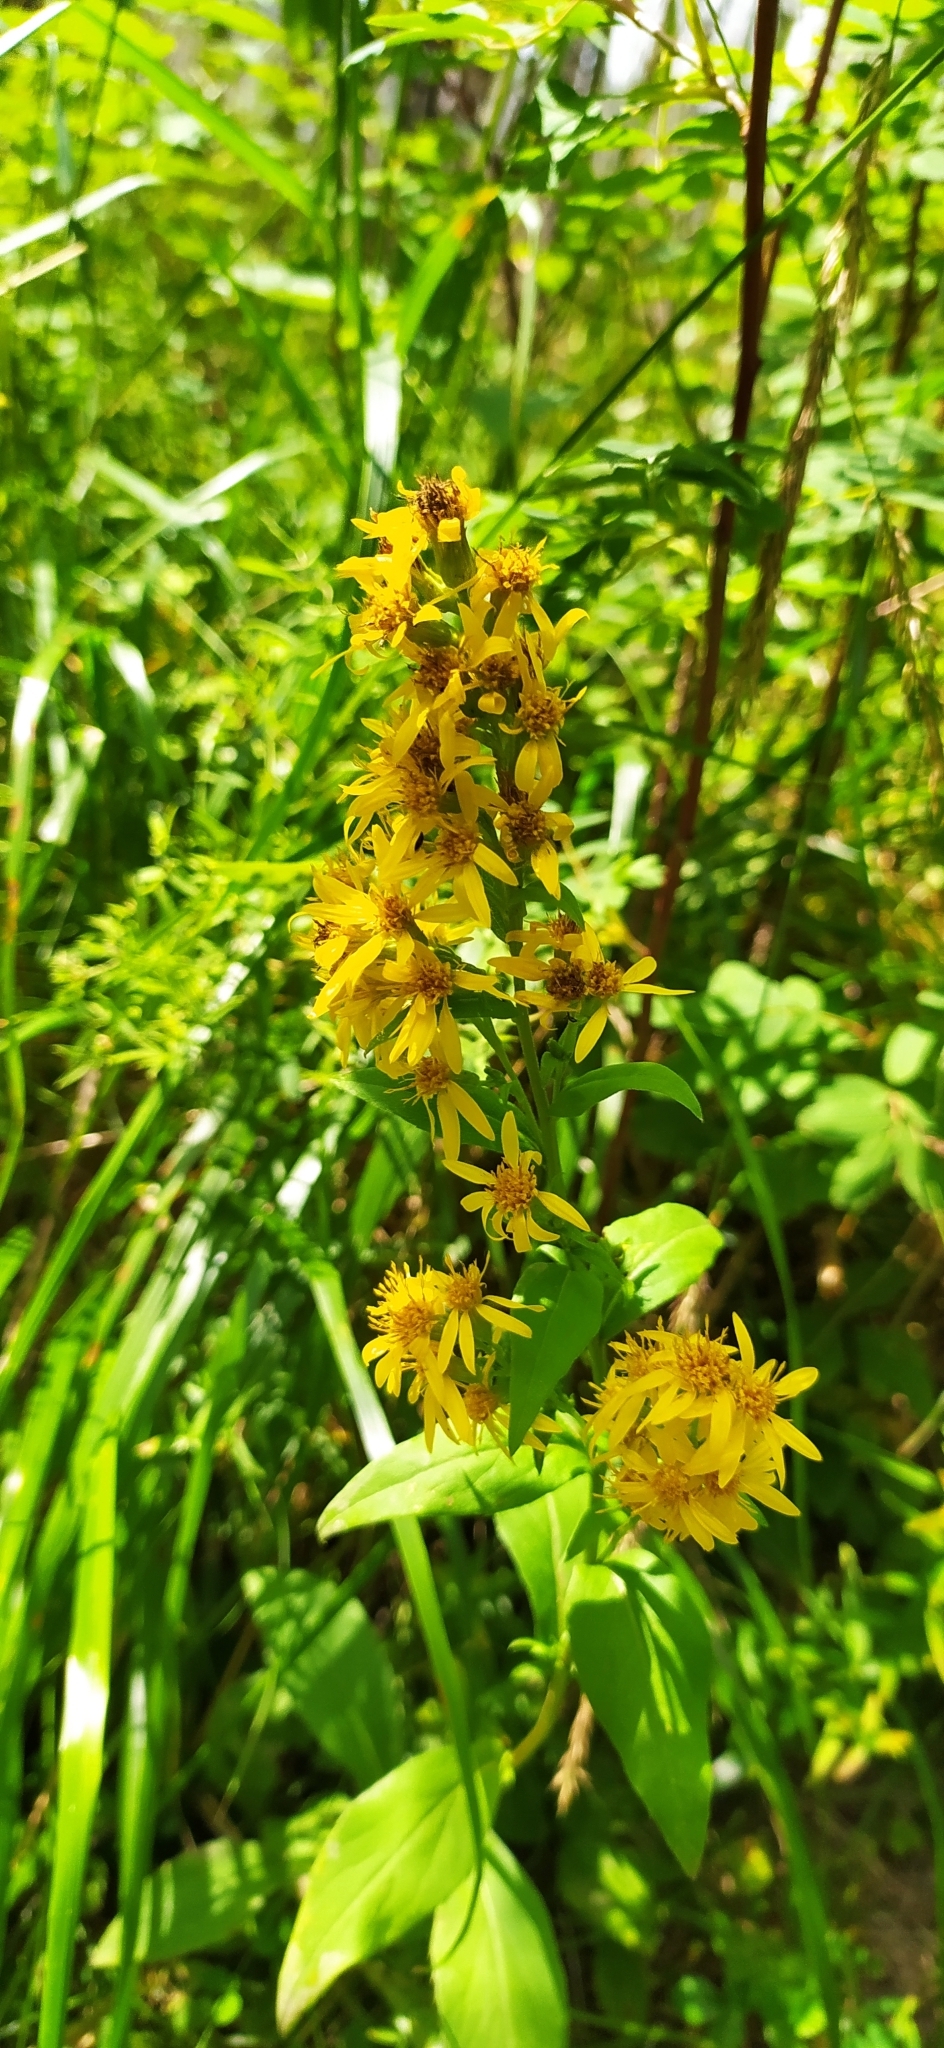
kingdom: Plantae
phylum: Tracheophyta
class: Magnoliopsida
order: Asterales
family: Asteraceae
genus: Solidago
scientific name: Solidago virgaurea
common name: Goldenrod
